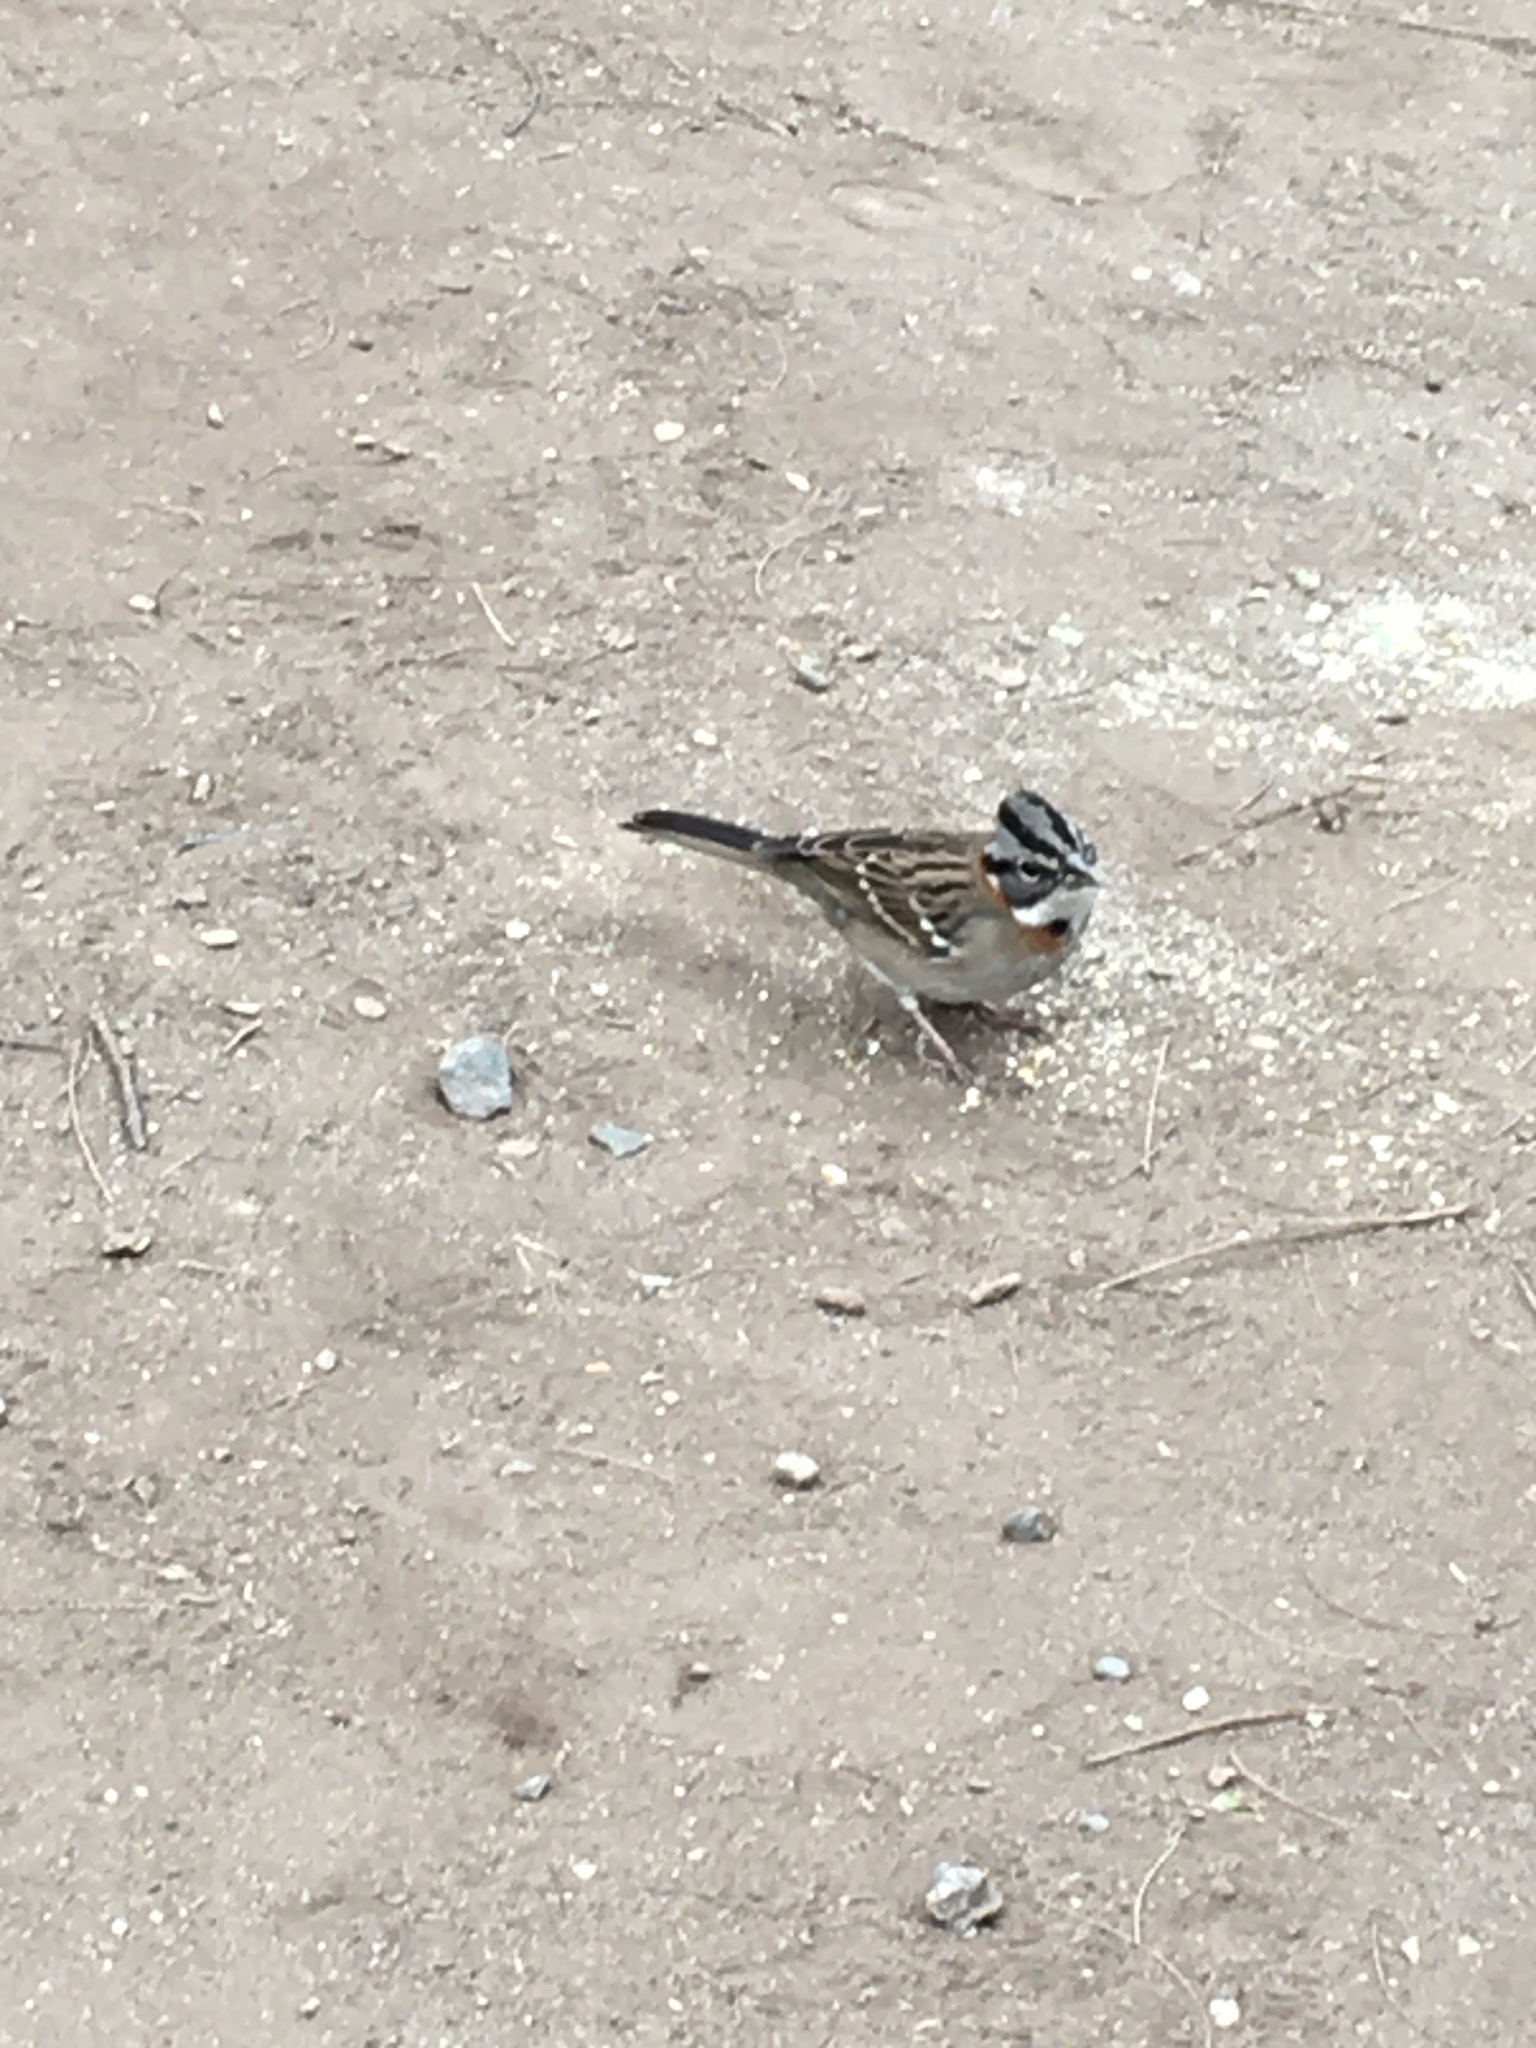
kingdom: Animalia
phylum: Chordata
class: Aves
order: Passeriformes
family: Passerellidae
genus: Zonotrichia
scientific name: Zonotrichia capensis
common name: Rufous-collared sparrow
